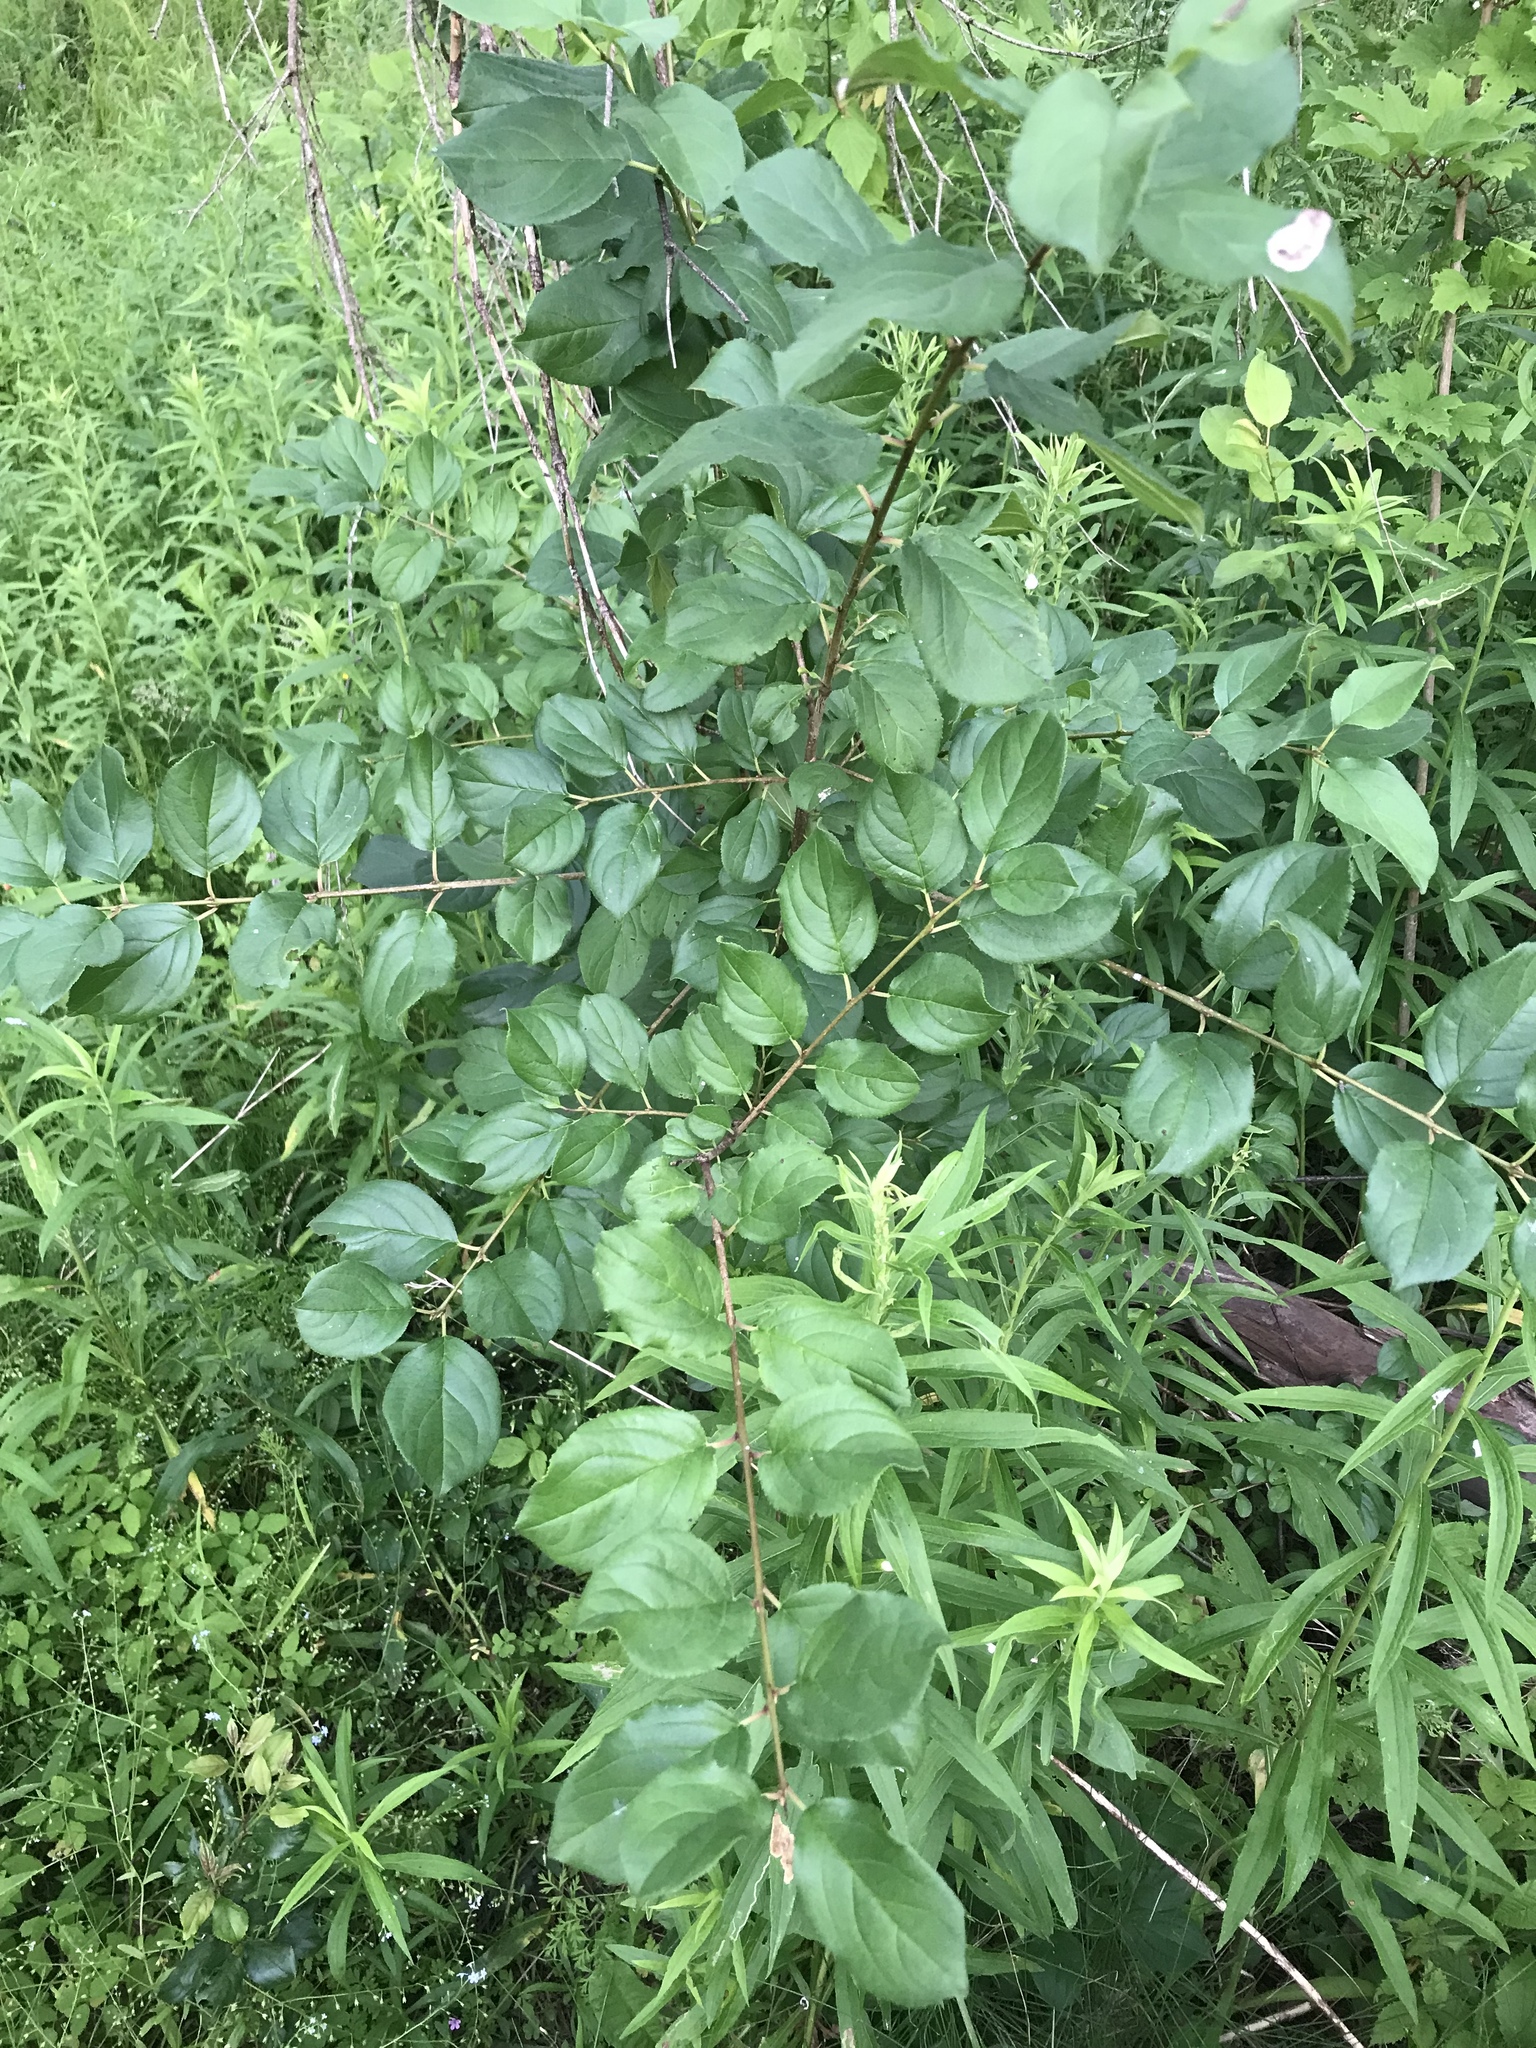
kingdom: Plantae
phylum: Tracheophyta
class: Magnoliopsida
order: Rosales
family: Rhamnaceae
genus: Rhamnus
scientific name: Rhamnus cathartica
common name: Common buckthorn
